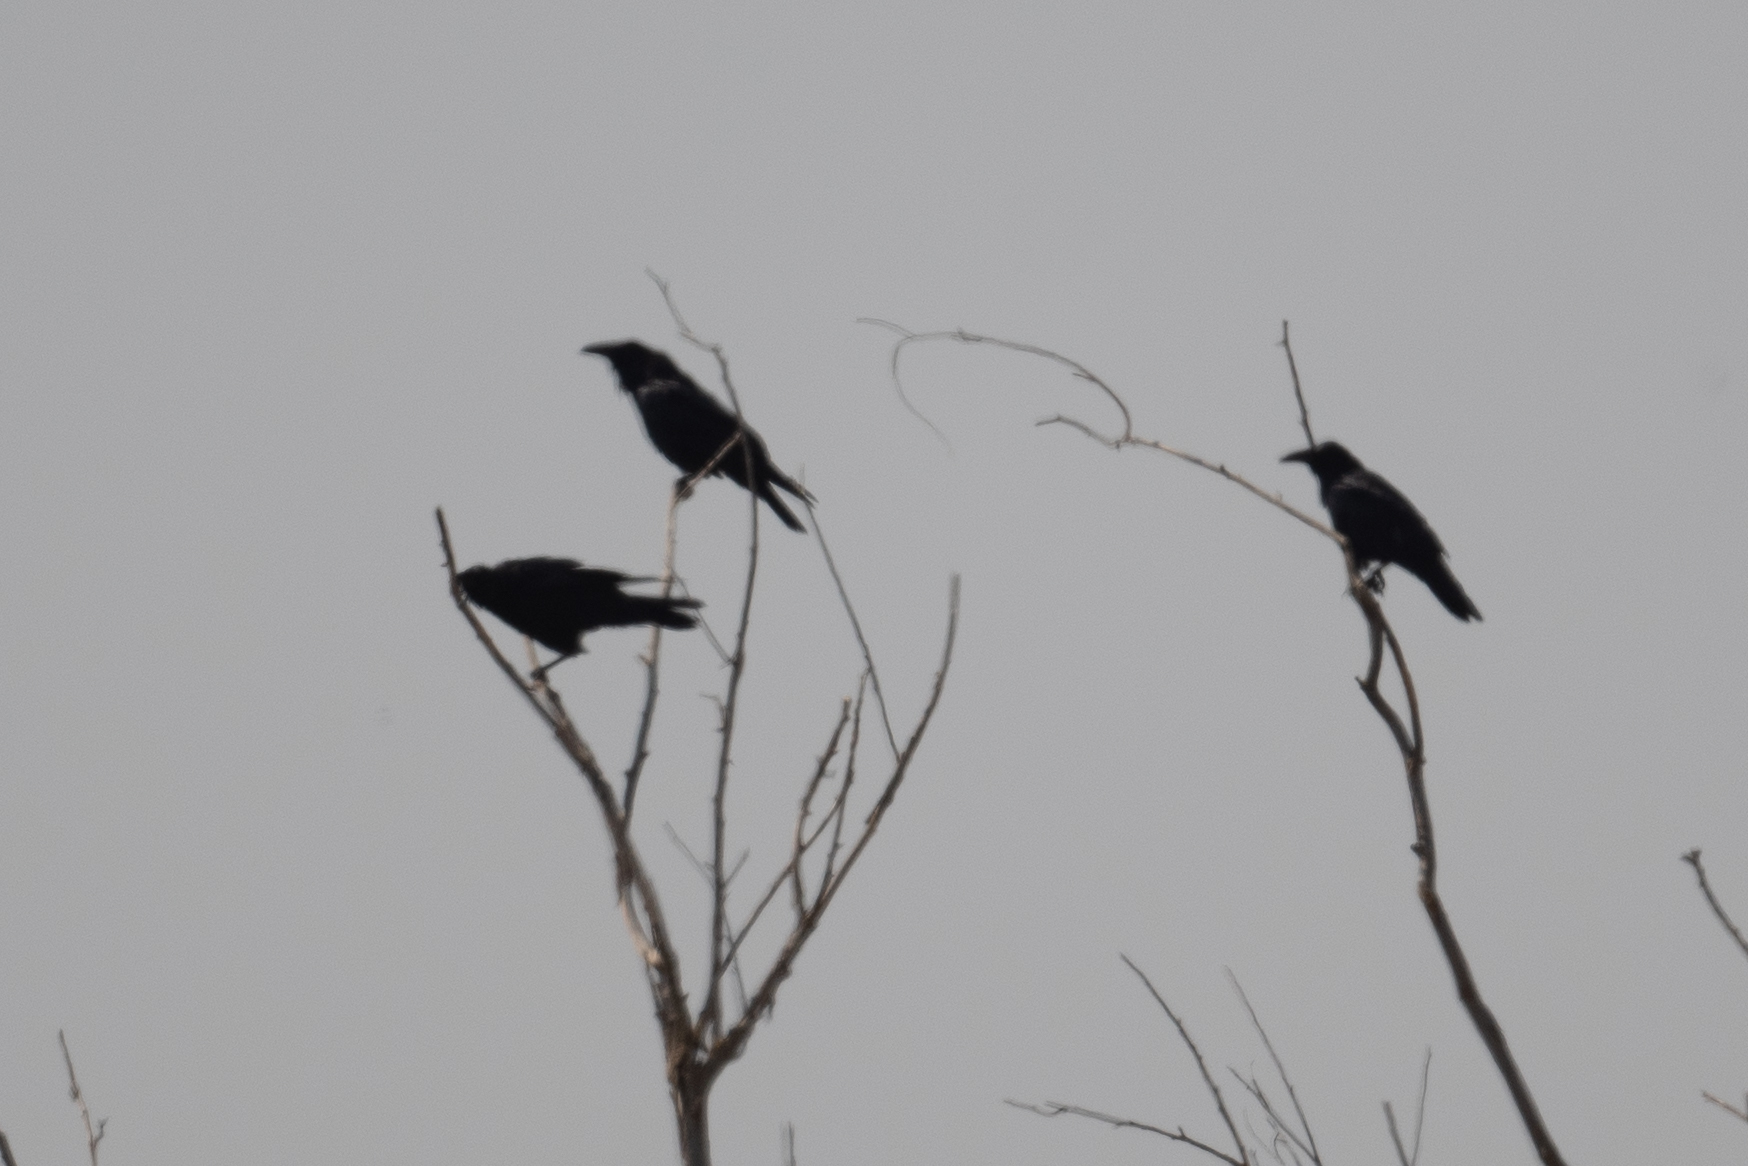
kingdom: Animalia
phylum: Chordata
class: Aves
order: Passeriformes
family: Corvidae
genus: Corvus
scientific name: Corvus corax
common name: Common raven
